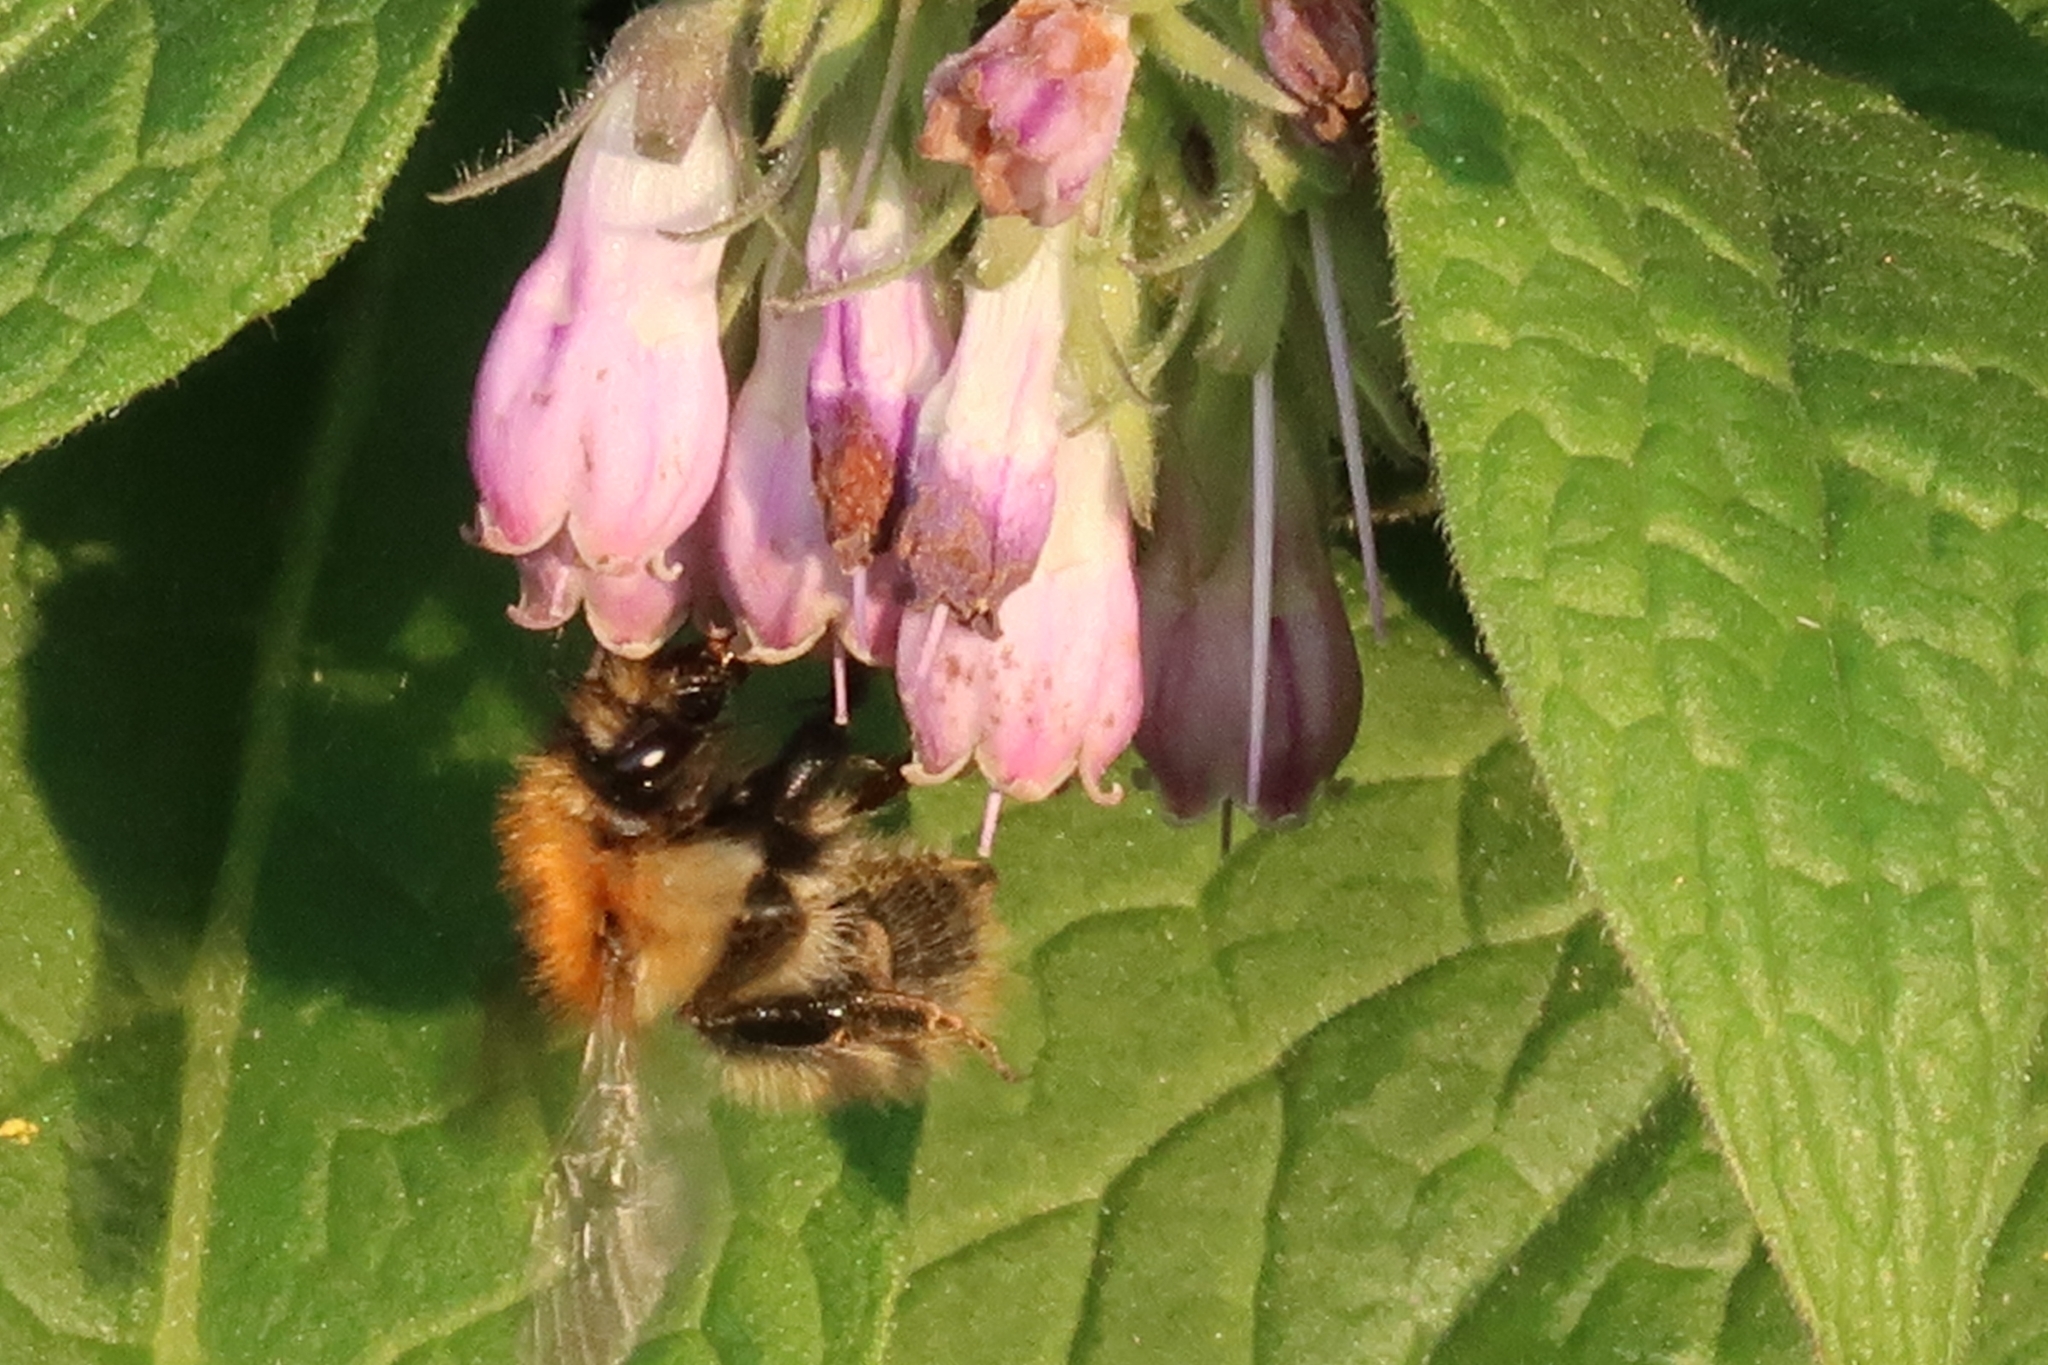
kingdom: Animalia
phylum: Arthropoda
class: Insecta
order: Hymenoptera
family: Apidae
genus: Bombus
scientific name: Bombus pascuorum
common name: Common carder bee
